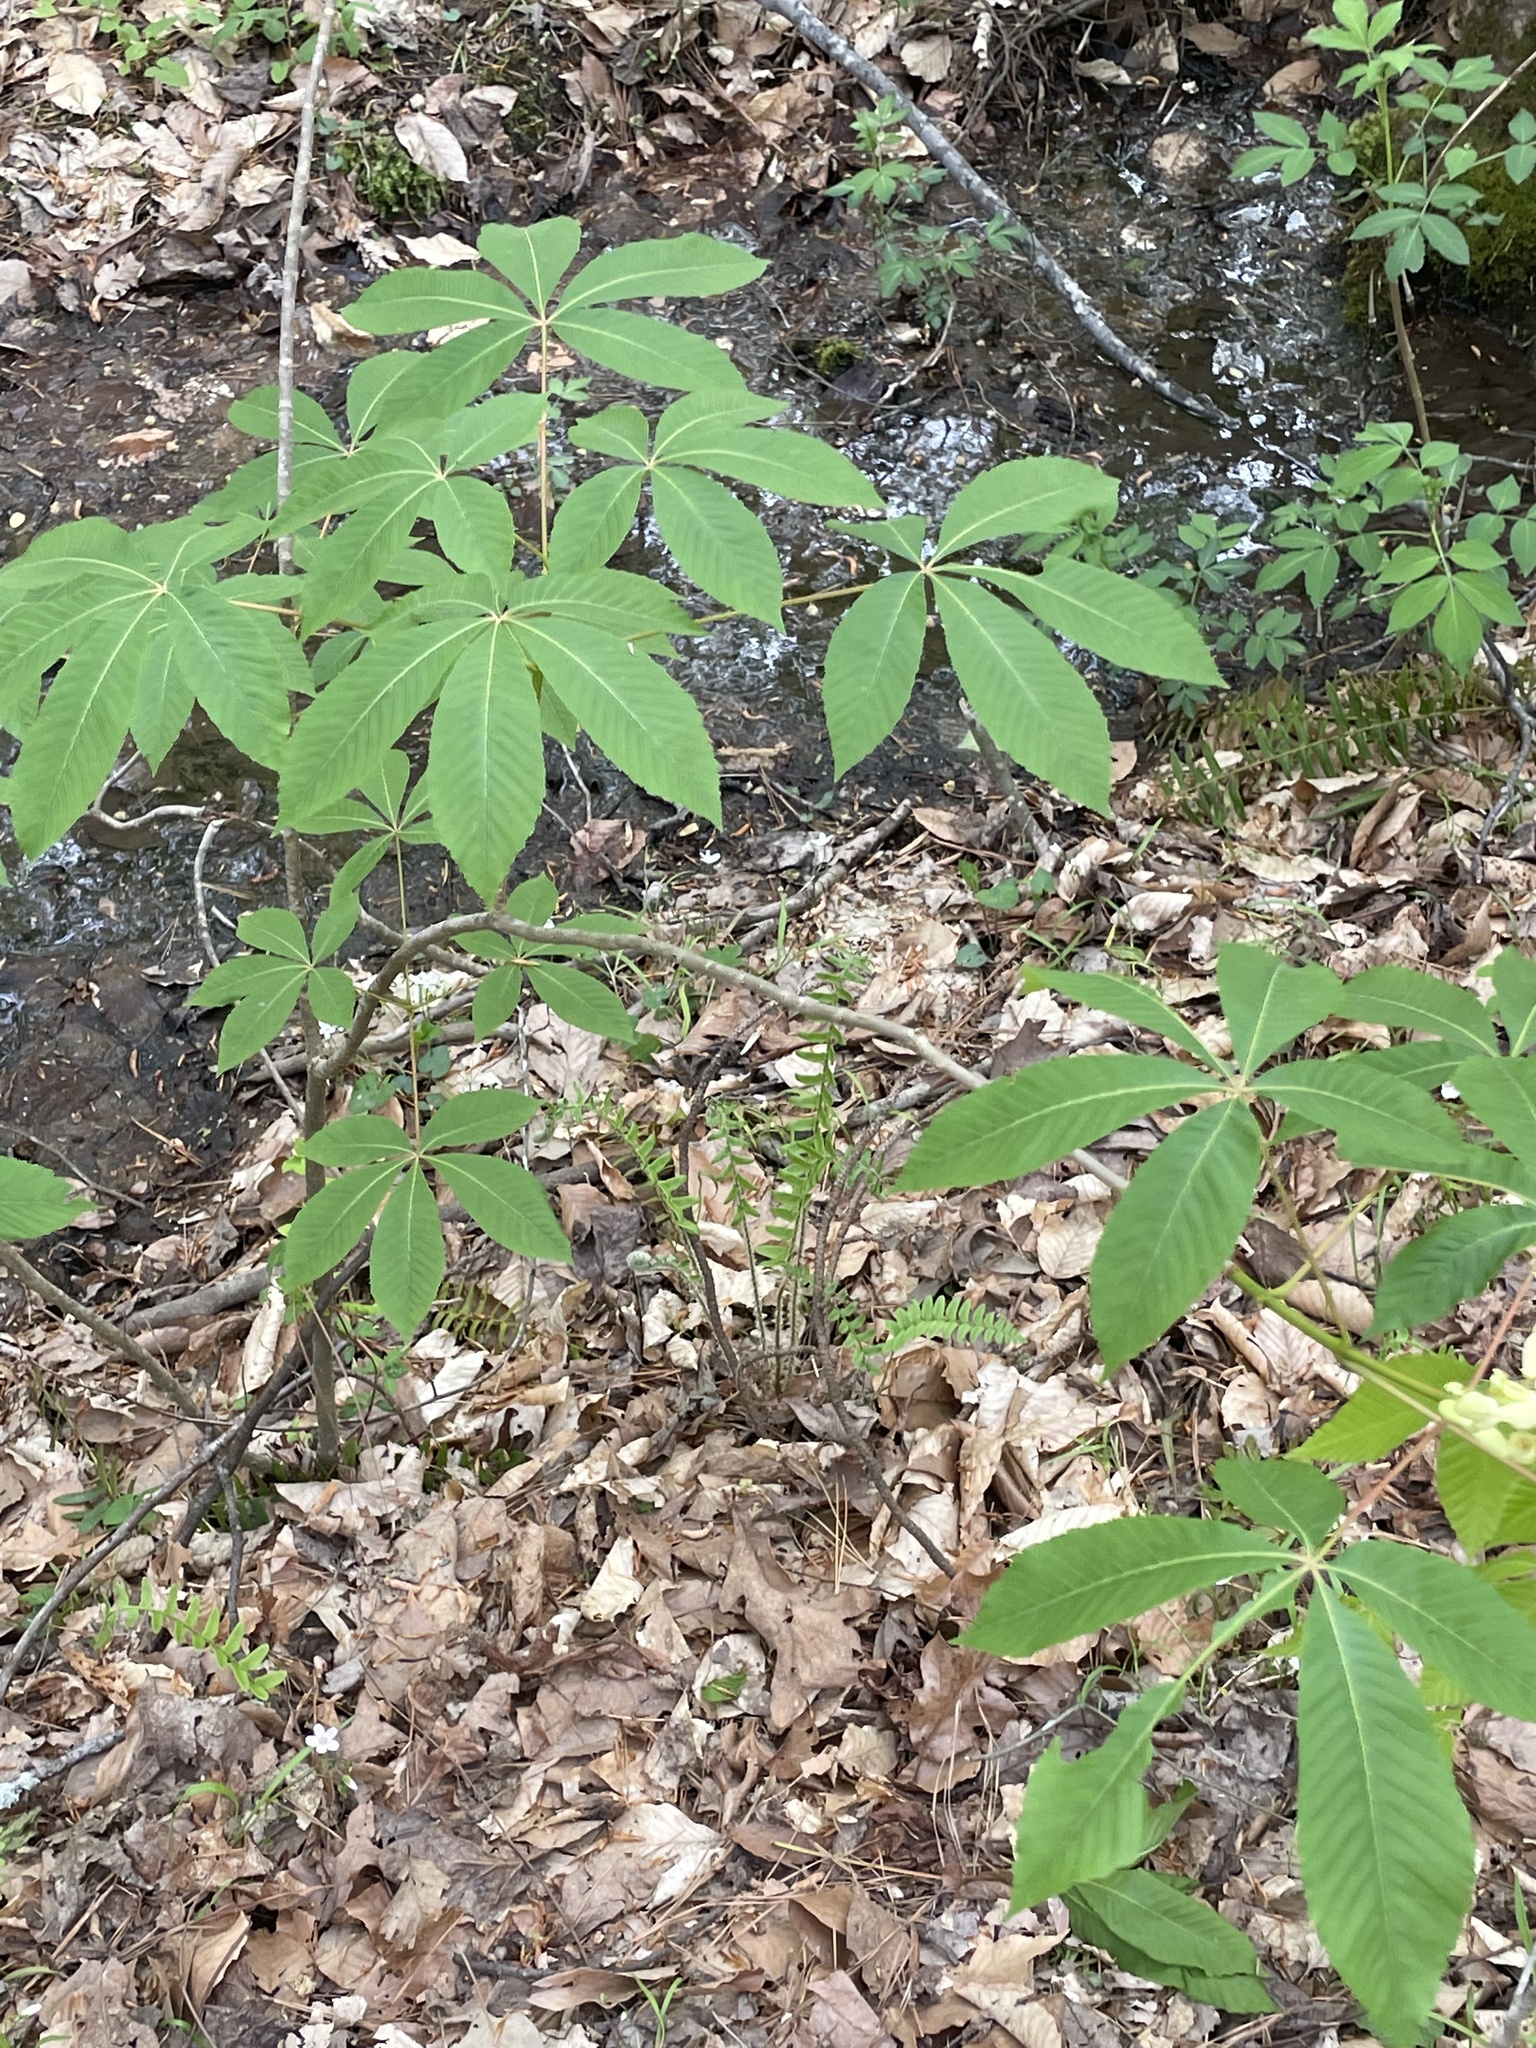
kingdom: Plantae
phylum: Tracheophyta
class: Magnoliopsida
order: Sapindales
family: Sapindaceae
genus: Aesculus
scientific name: Aesculus sylvatica
